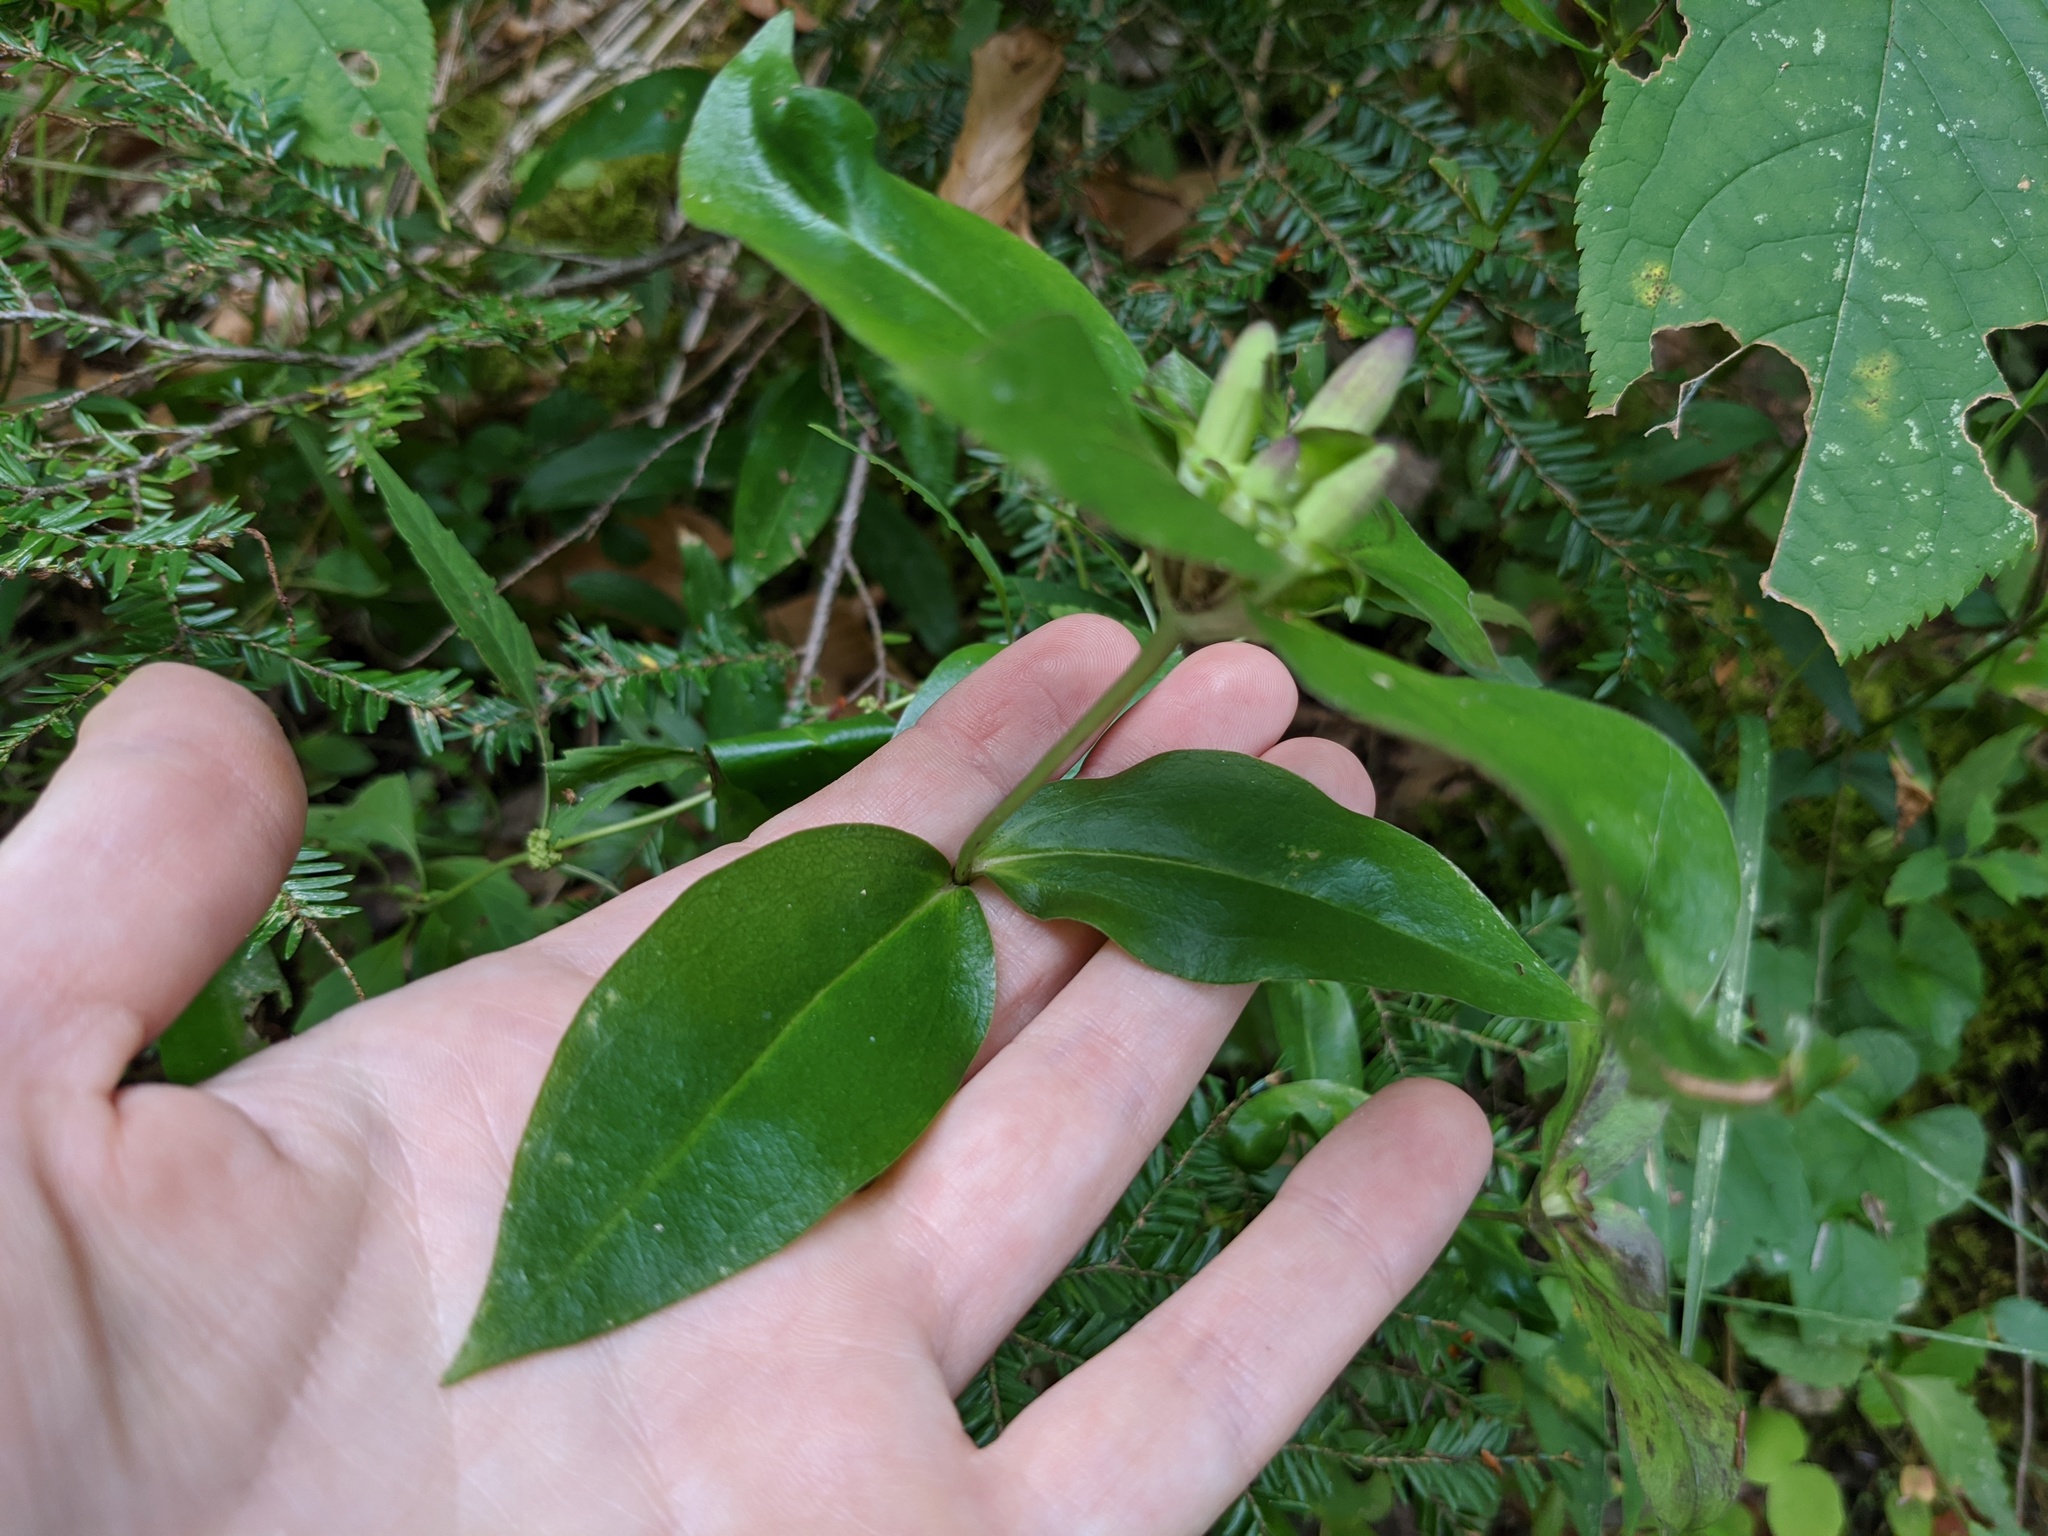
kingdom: Plantae
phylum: Tracheophyta
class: Magnoliopsida
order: Gentianales
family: Gentianaceae
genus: Gentiana
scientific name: Gentiana clausa
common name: Blind gentian
